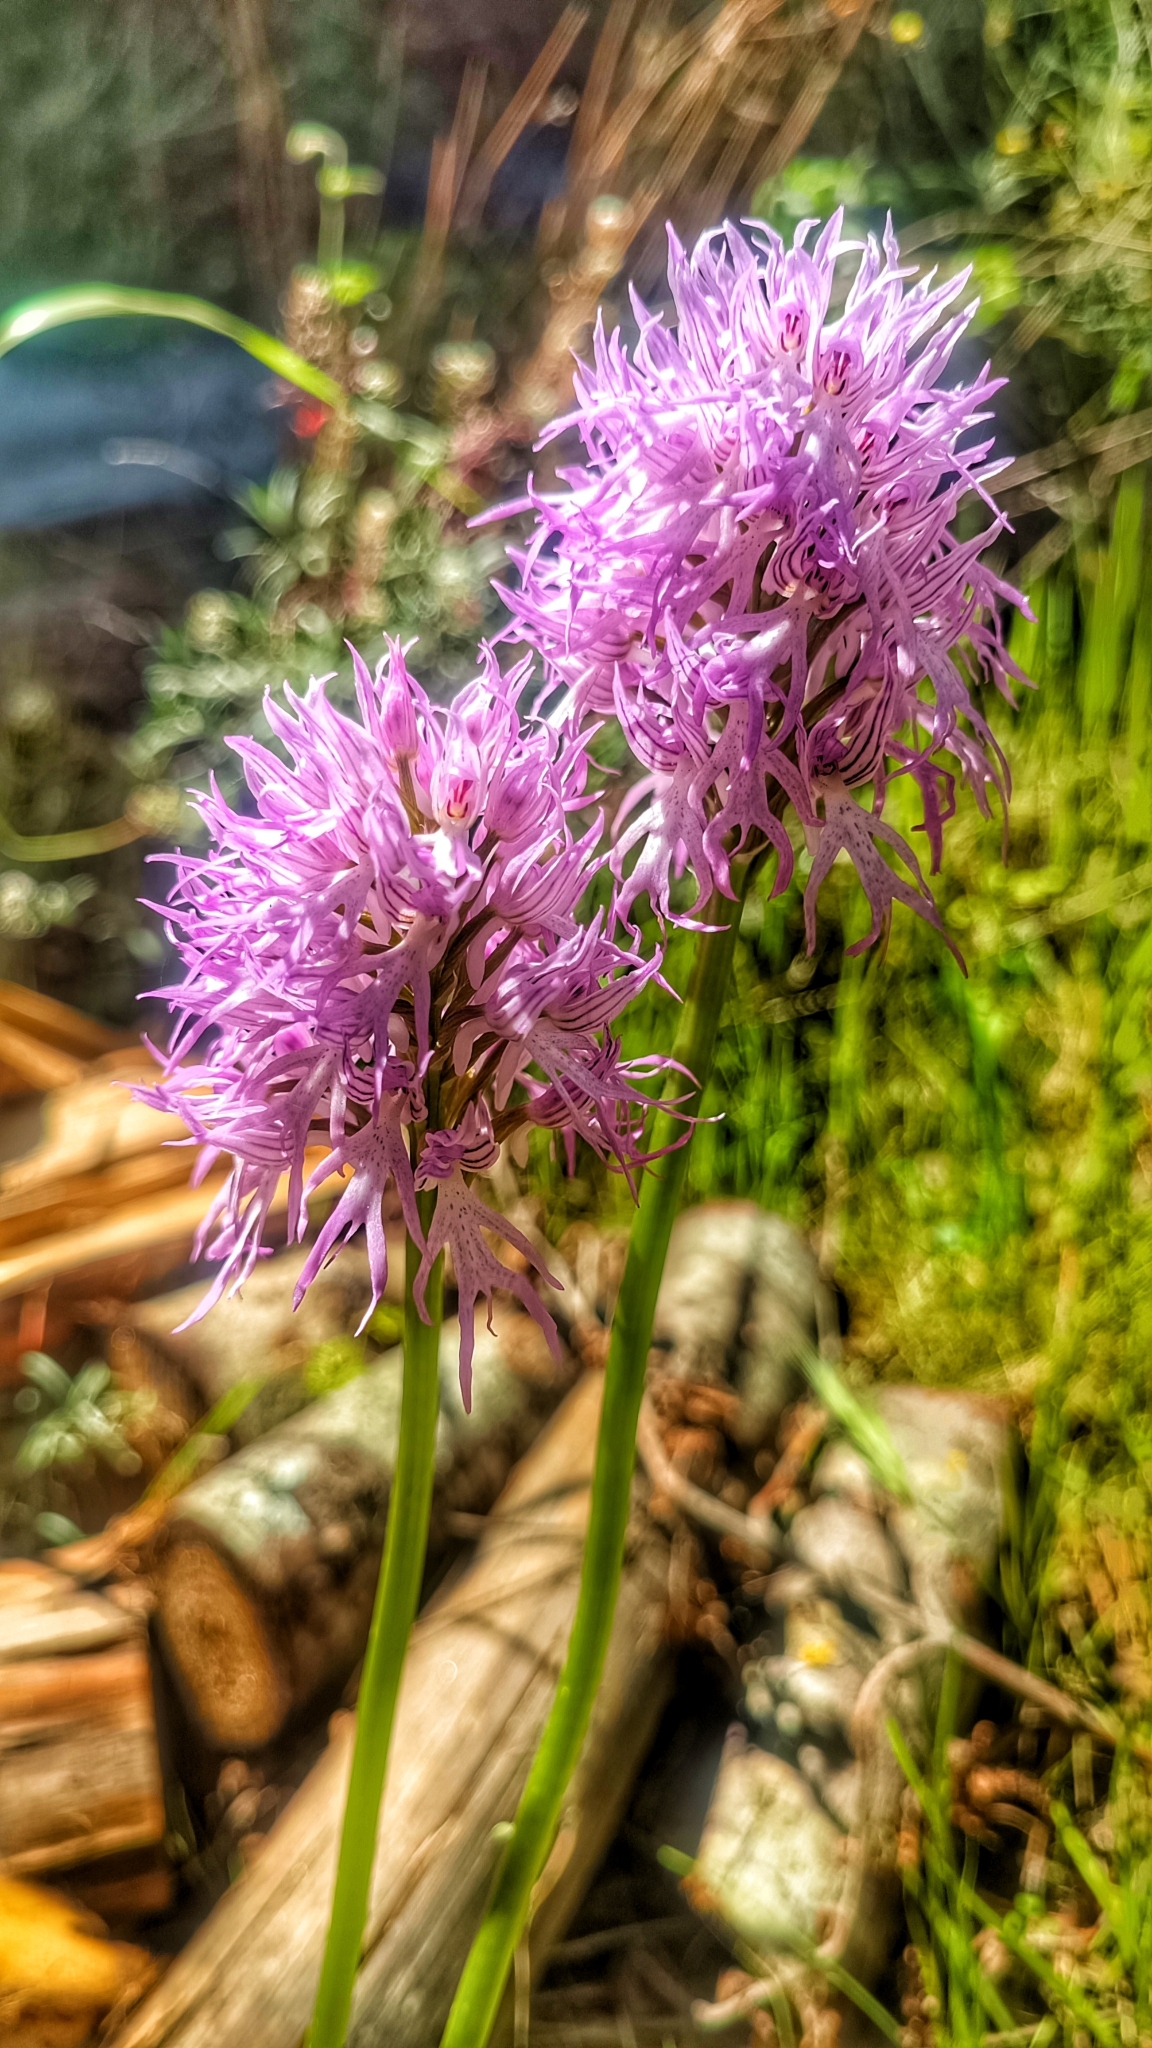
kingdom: Plantae
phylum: Tracheophyta
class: Liliopsida
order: Asparagales
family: Orchidaceae
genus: Orchis
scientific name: Orchis italica
